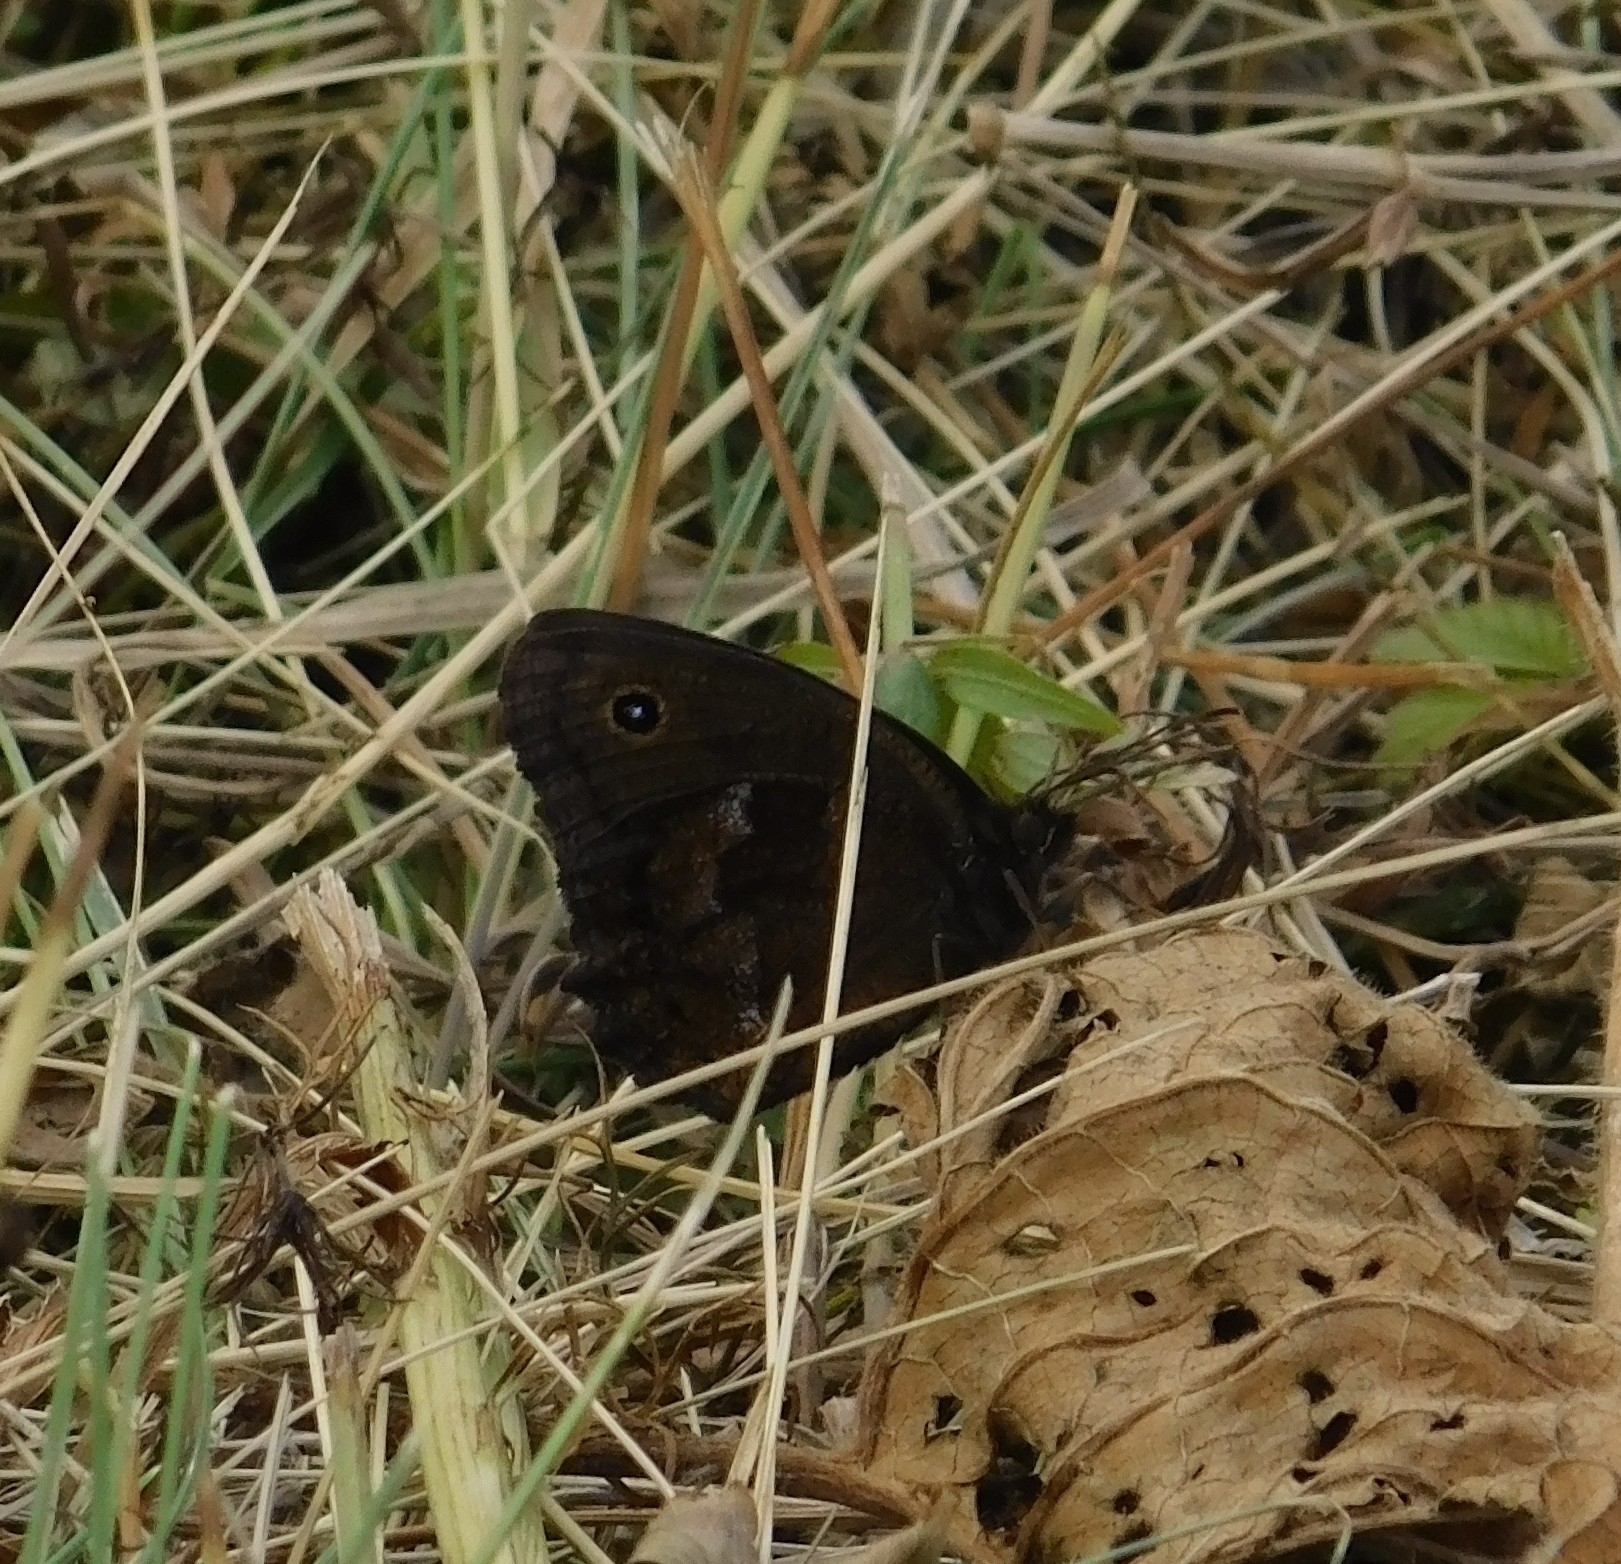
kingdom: Animalia
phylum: Arthropoda
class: Insecta
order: Lepidoptera
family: Nymphalidae
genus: Minois
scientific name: Minois dryas
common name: Dryad
